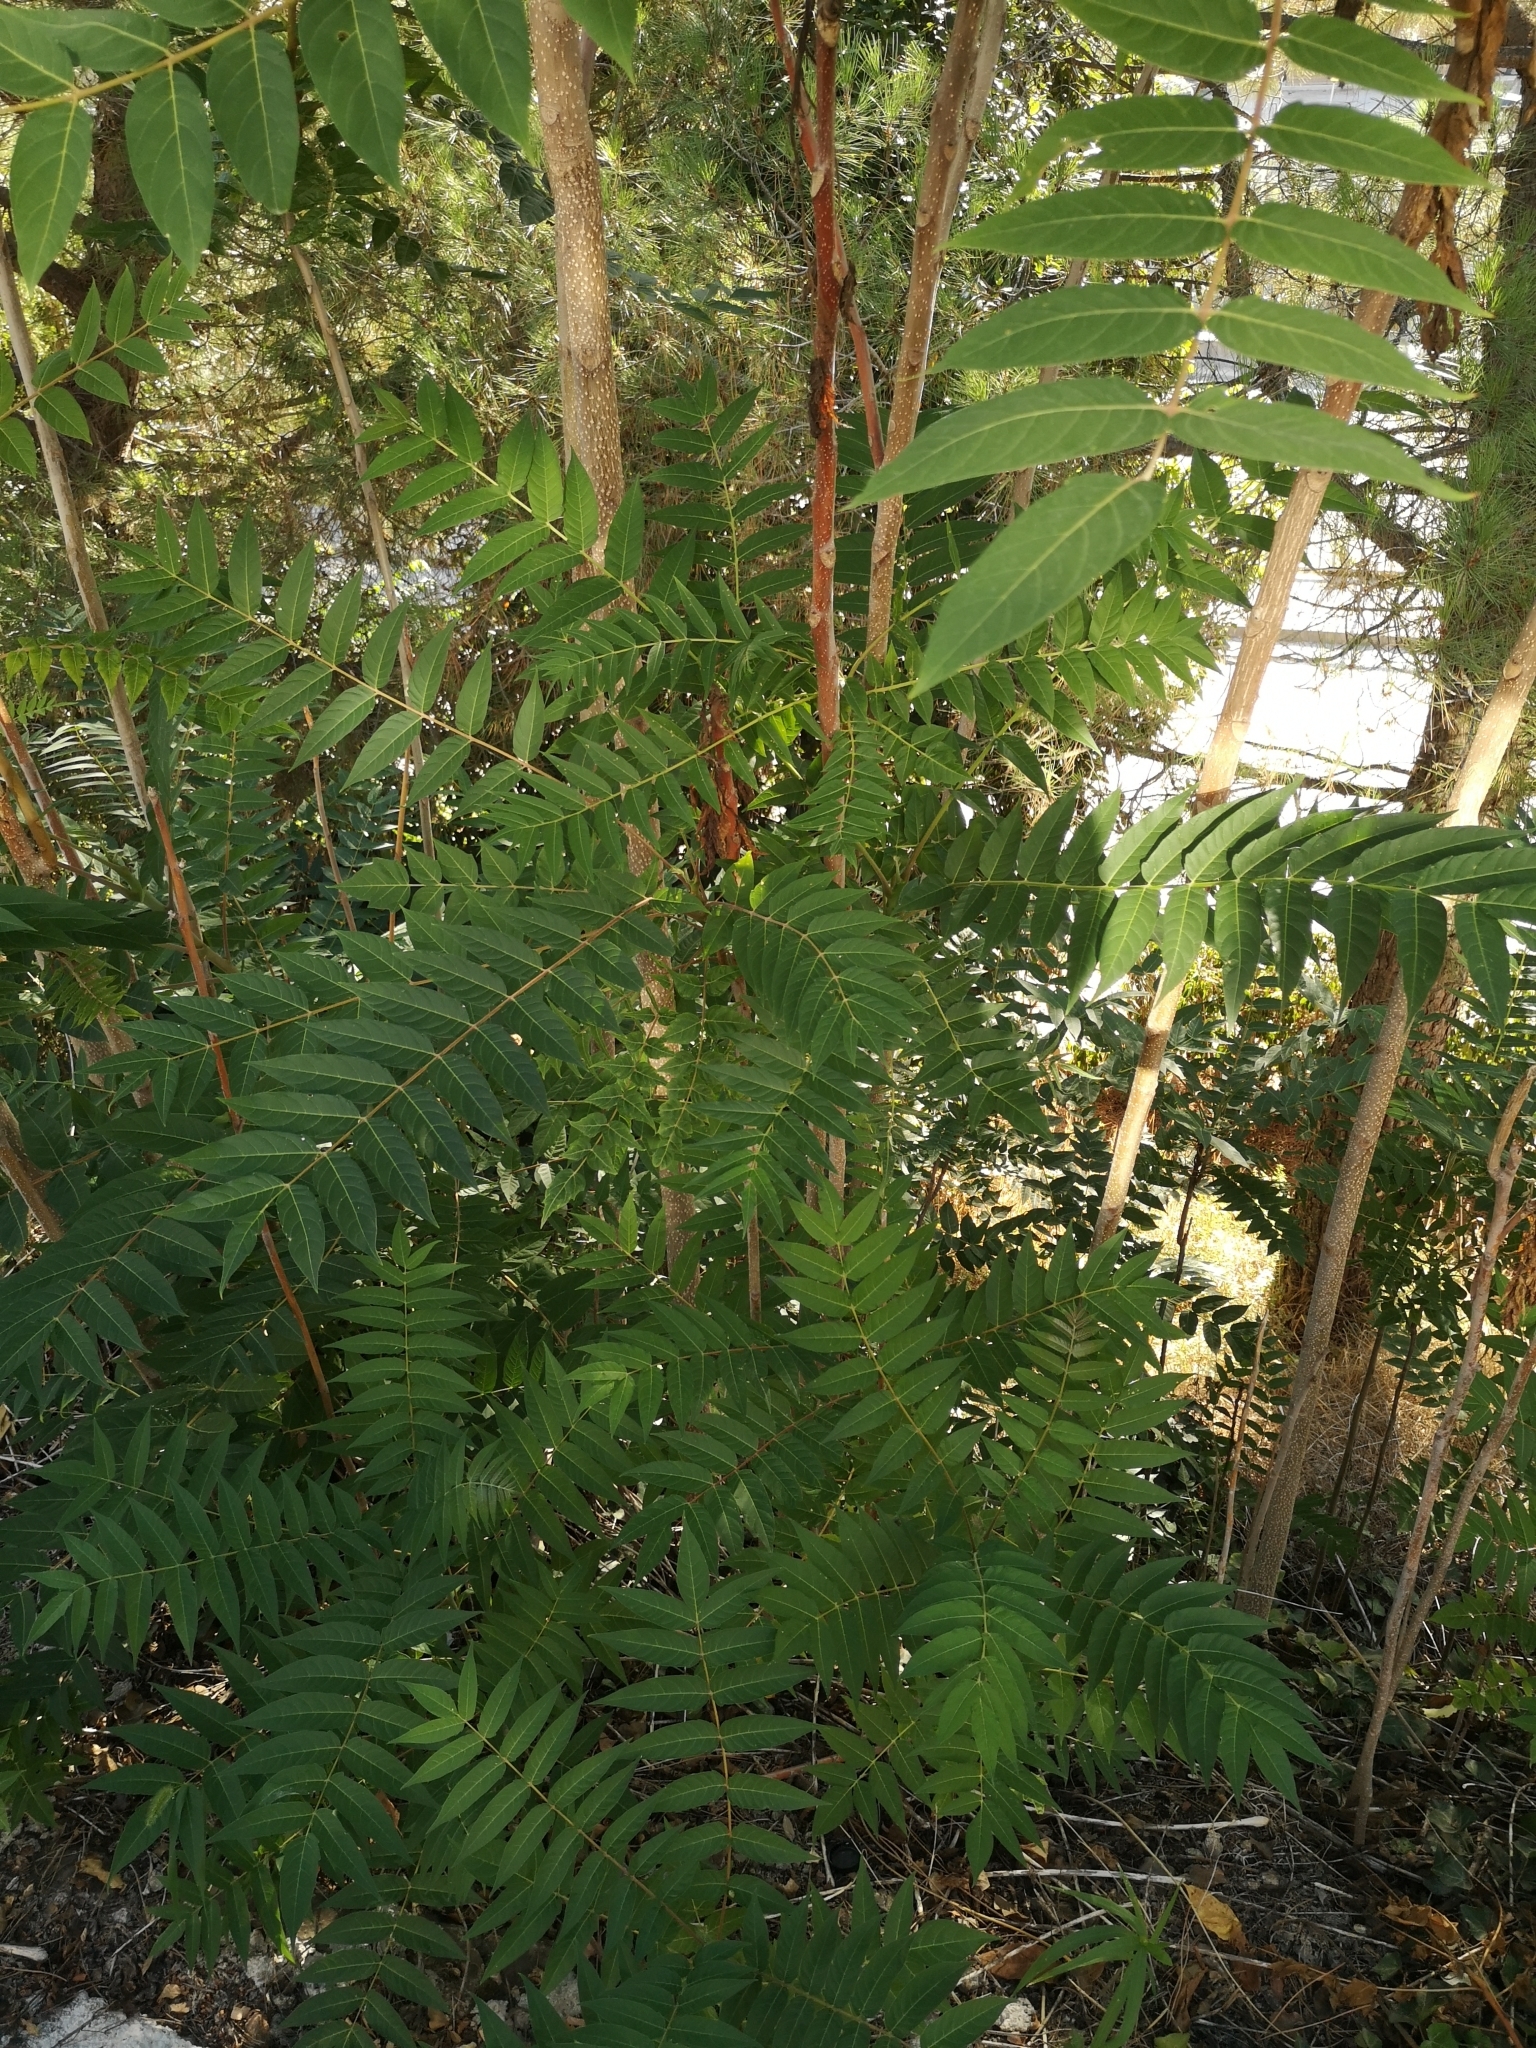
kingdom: Plantae
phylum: Tracheophyta
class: Magnoliopsida
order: Sapindales
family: Simaroubaceae
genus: Ailanthus
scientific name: Ailanthus altissima
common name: Tree-of-heaven
